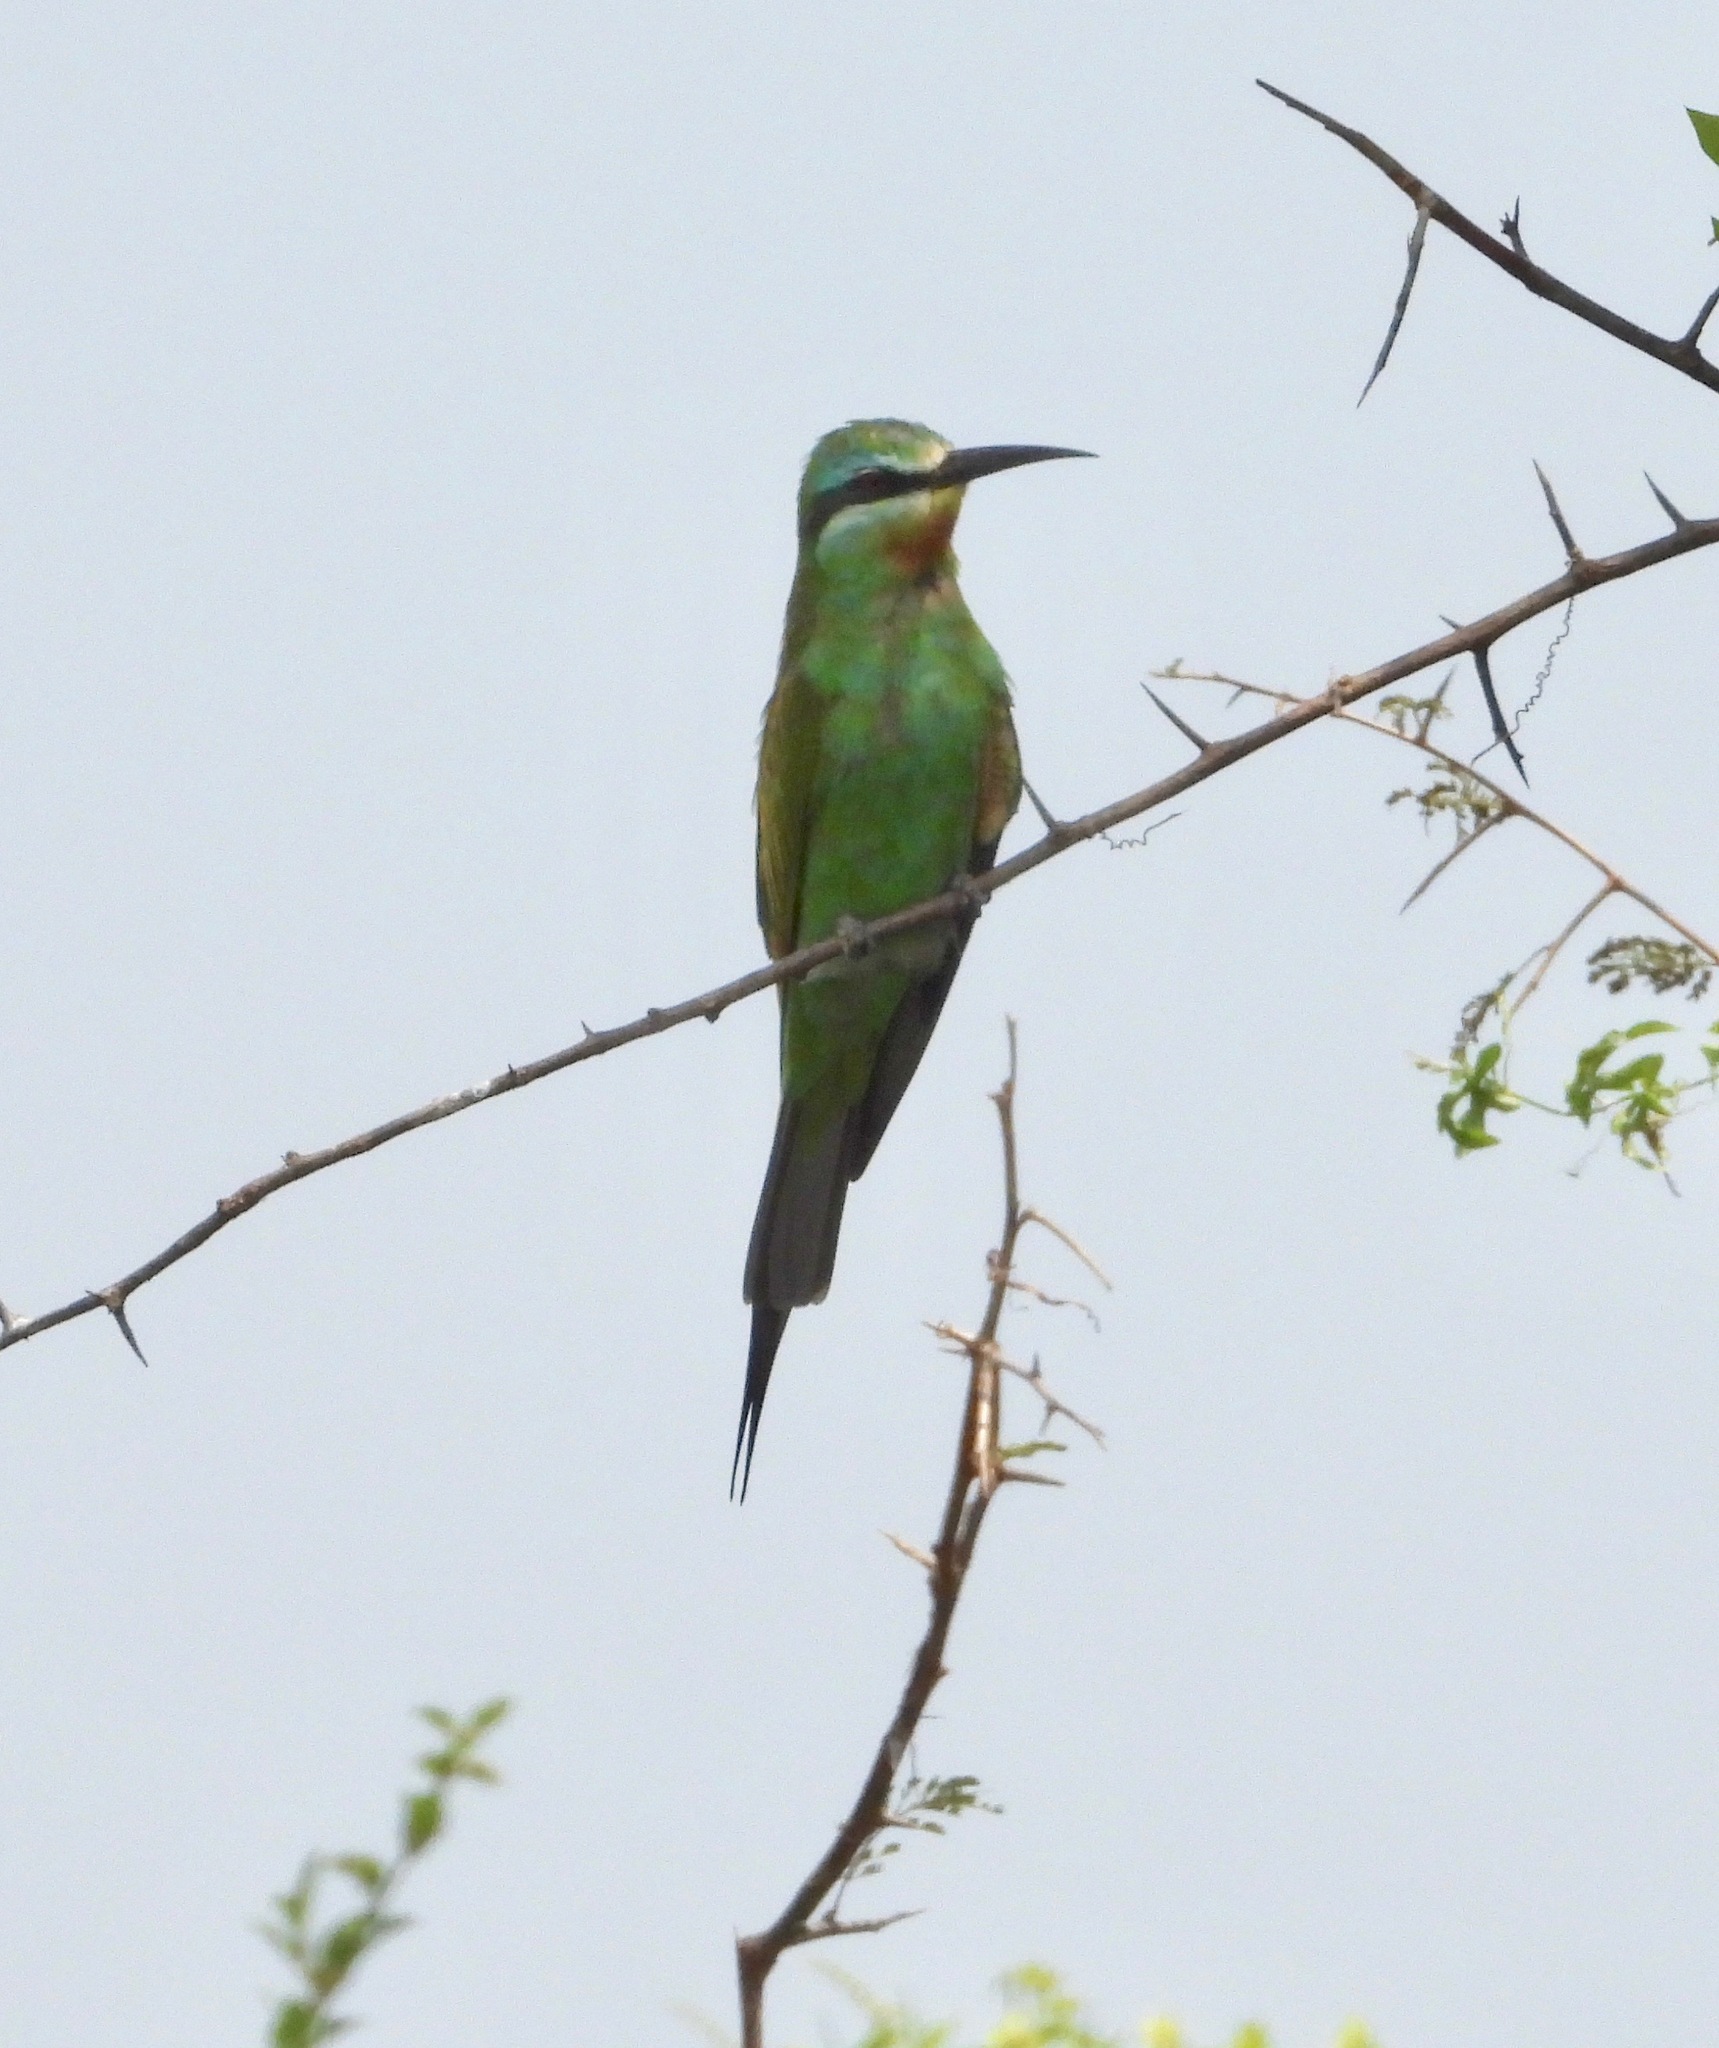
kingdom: Animalia
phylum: Chordata
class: Aves
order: Coraciiformes
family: Meropidae
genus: Merops
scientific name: Merops persicus
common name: Blue-cheeked bee-eater
